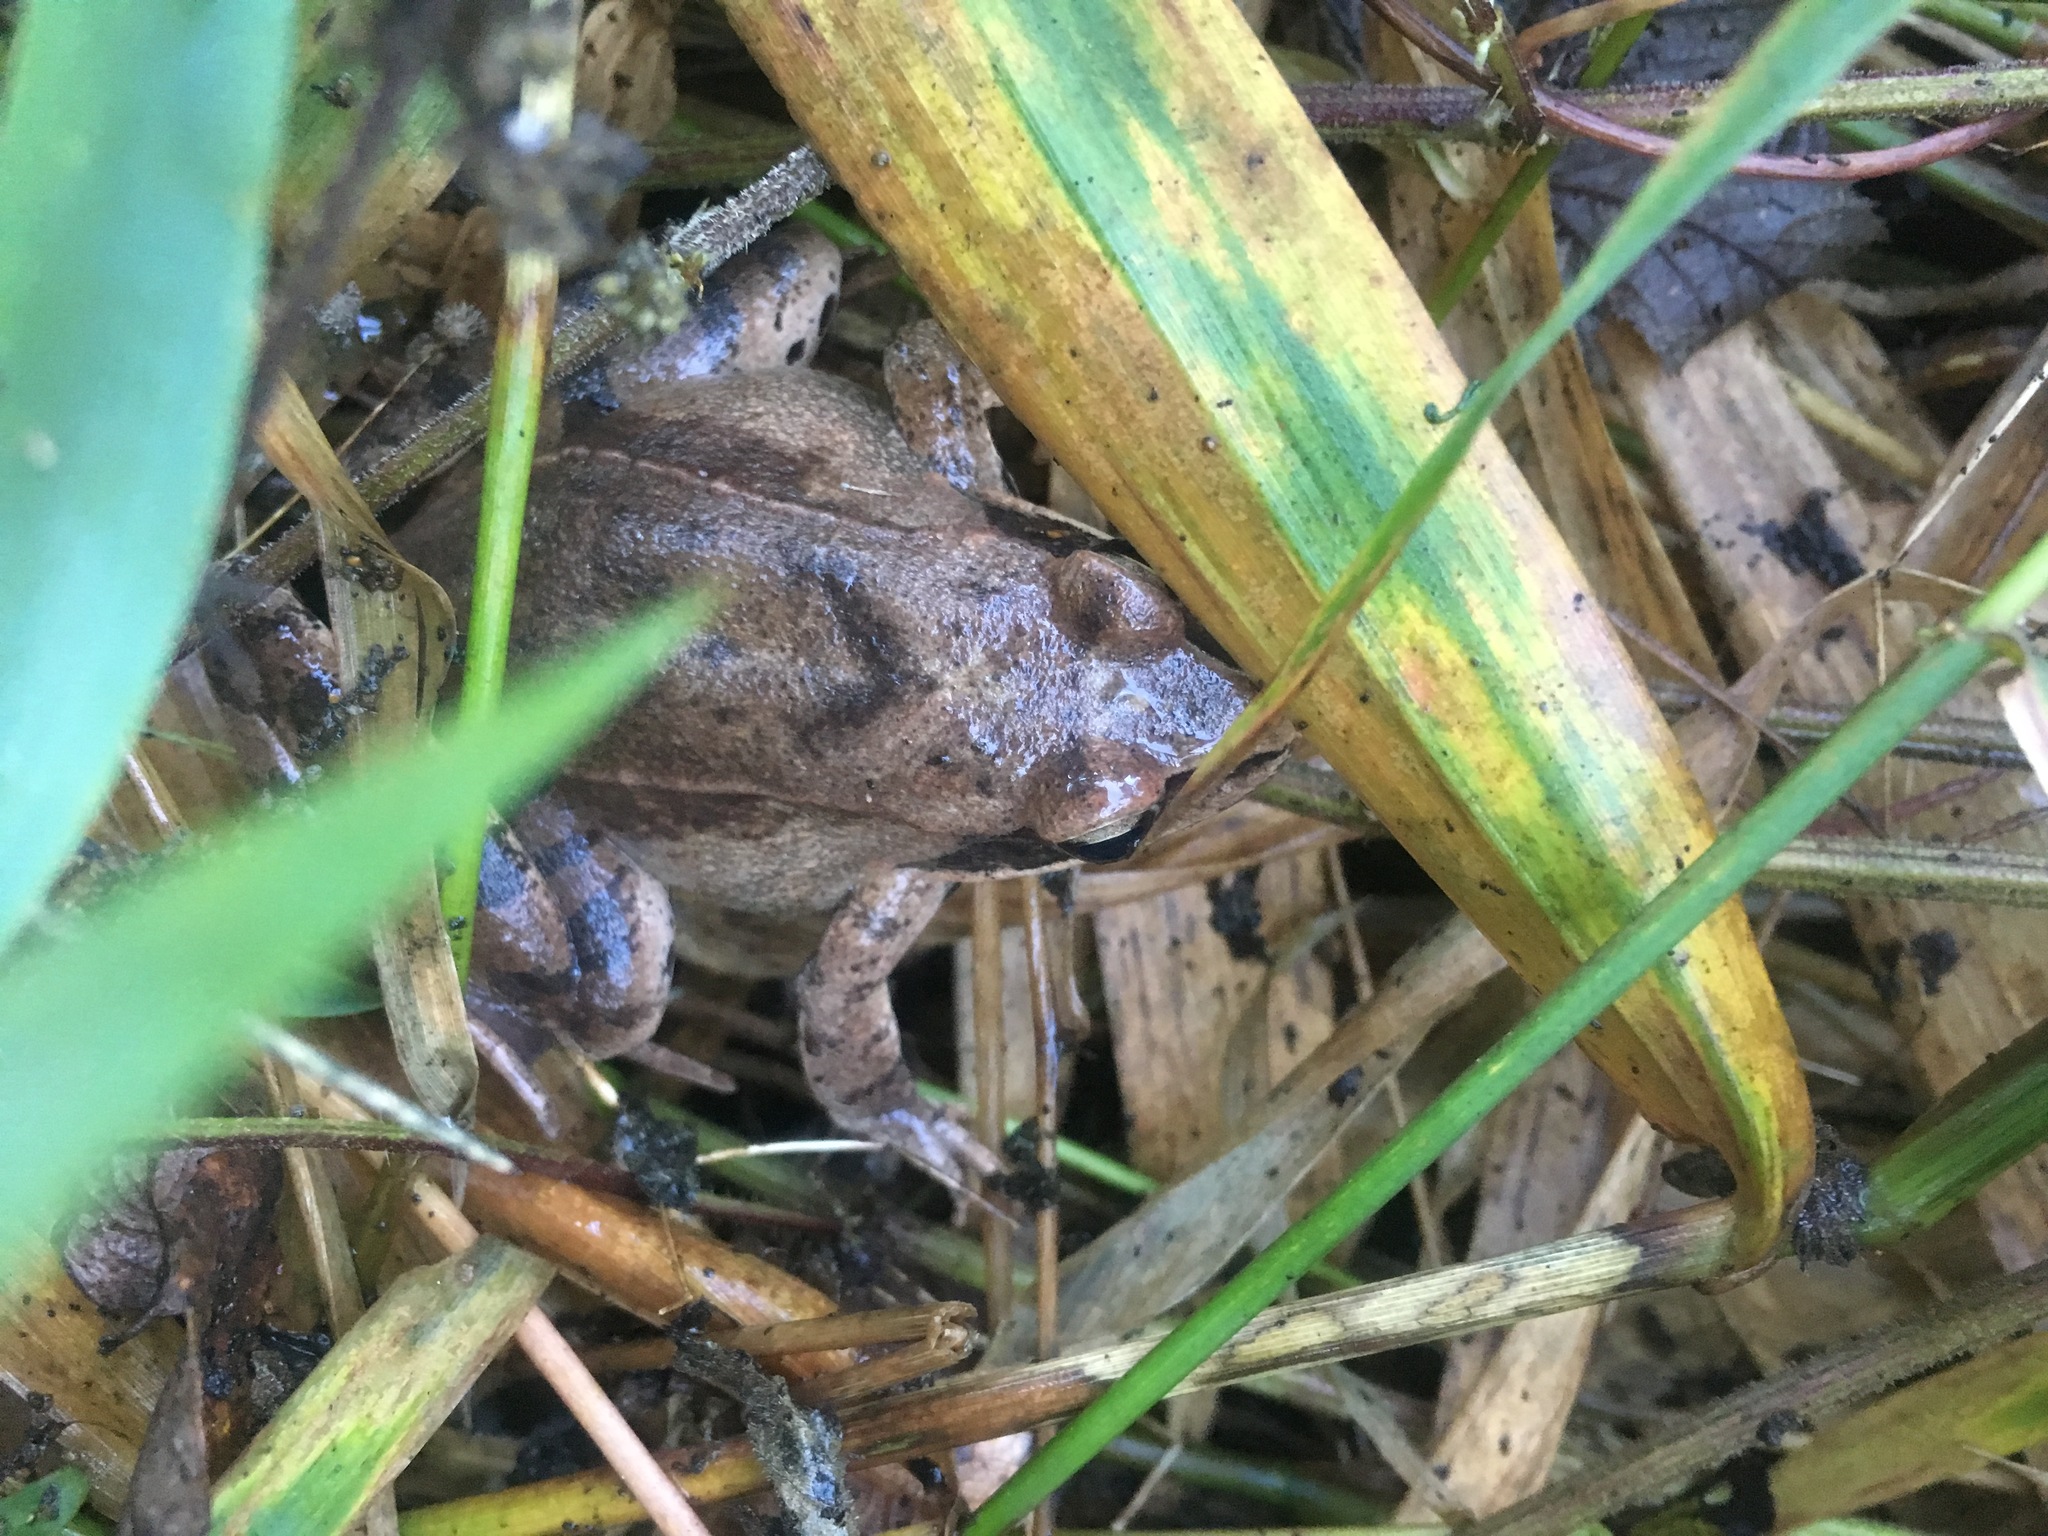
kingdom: Animalia
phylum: Chordata
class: Amphibia
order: Anura
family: Ranidae
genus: Rana
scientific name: Rana dalmatina
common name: Agile frog
